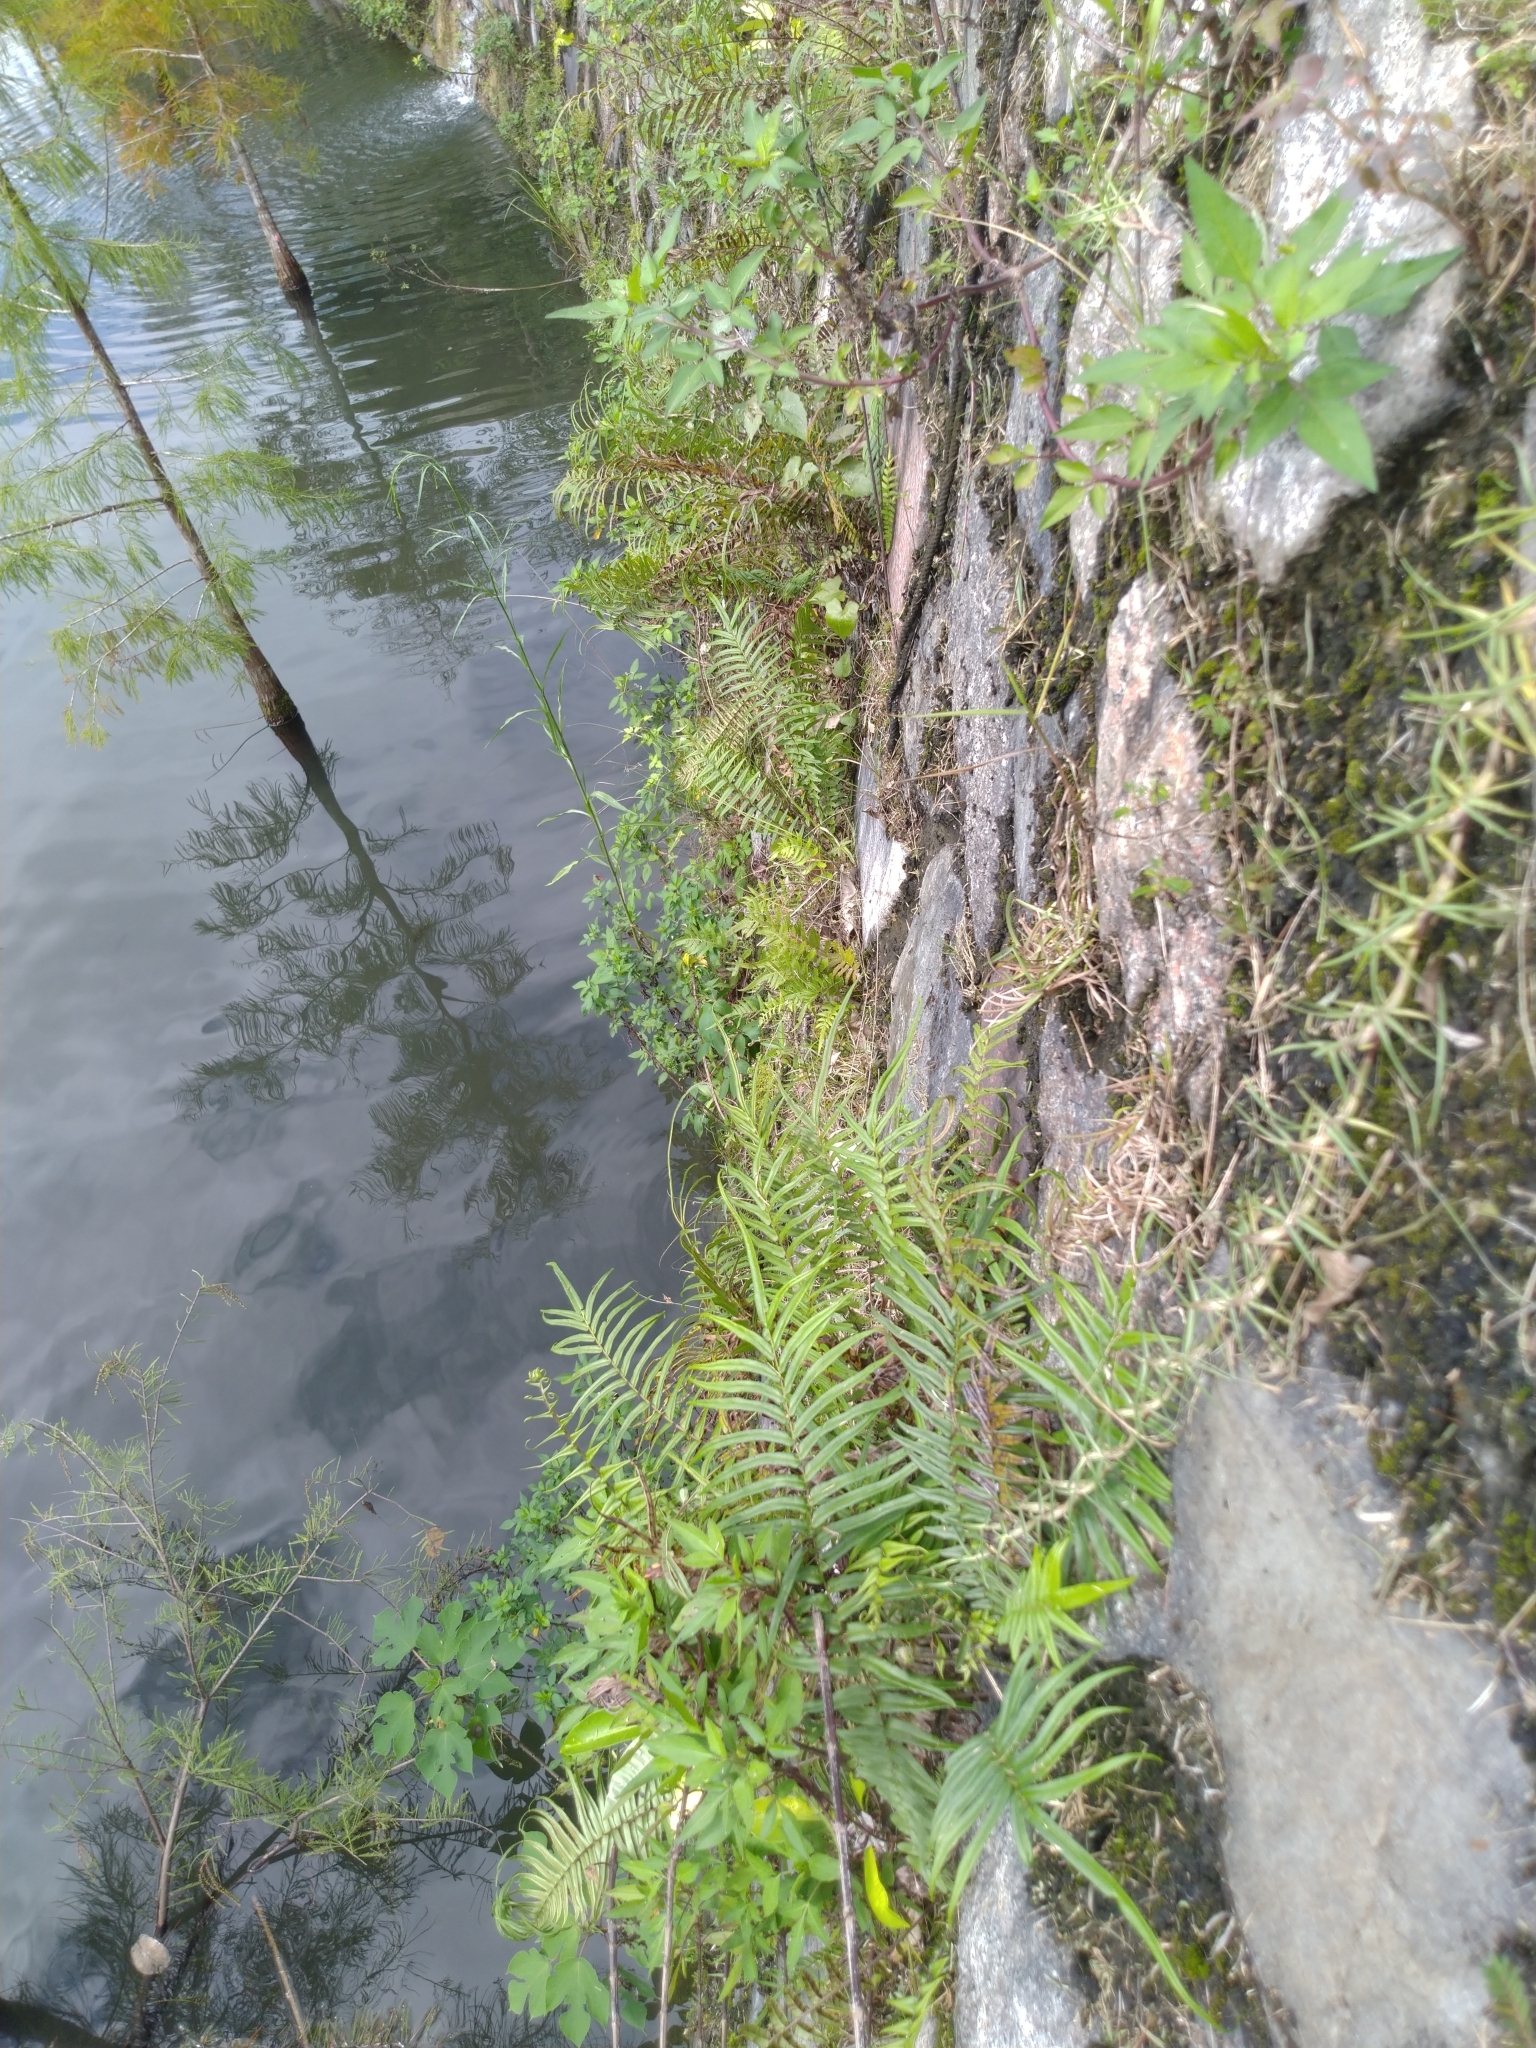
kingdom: Plantae
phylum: Tracheophyta
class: Polypodiopsida
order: Polypodiales
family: Pteridaceae
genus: Pteris
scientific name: Pteris vittata
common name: Ladder brake
